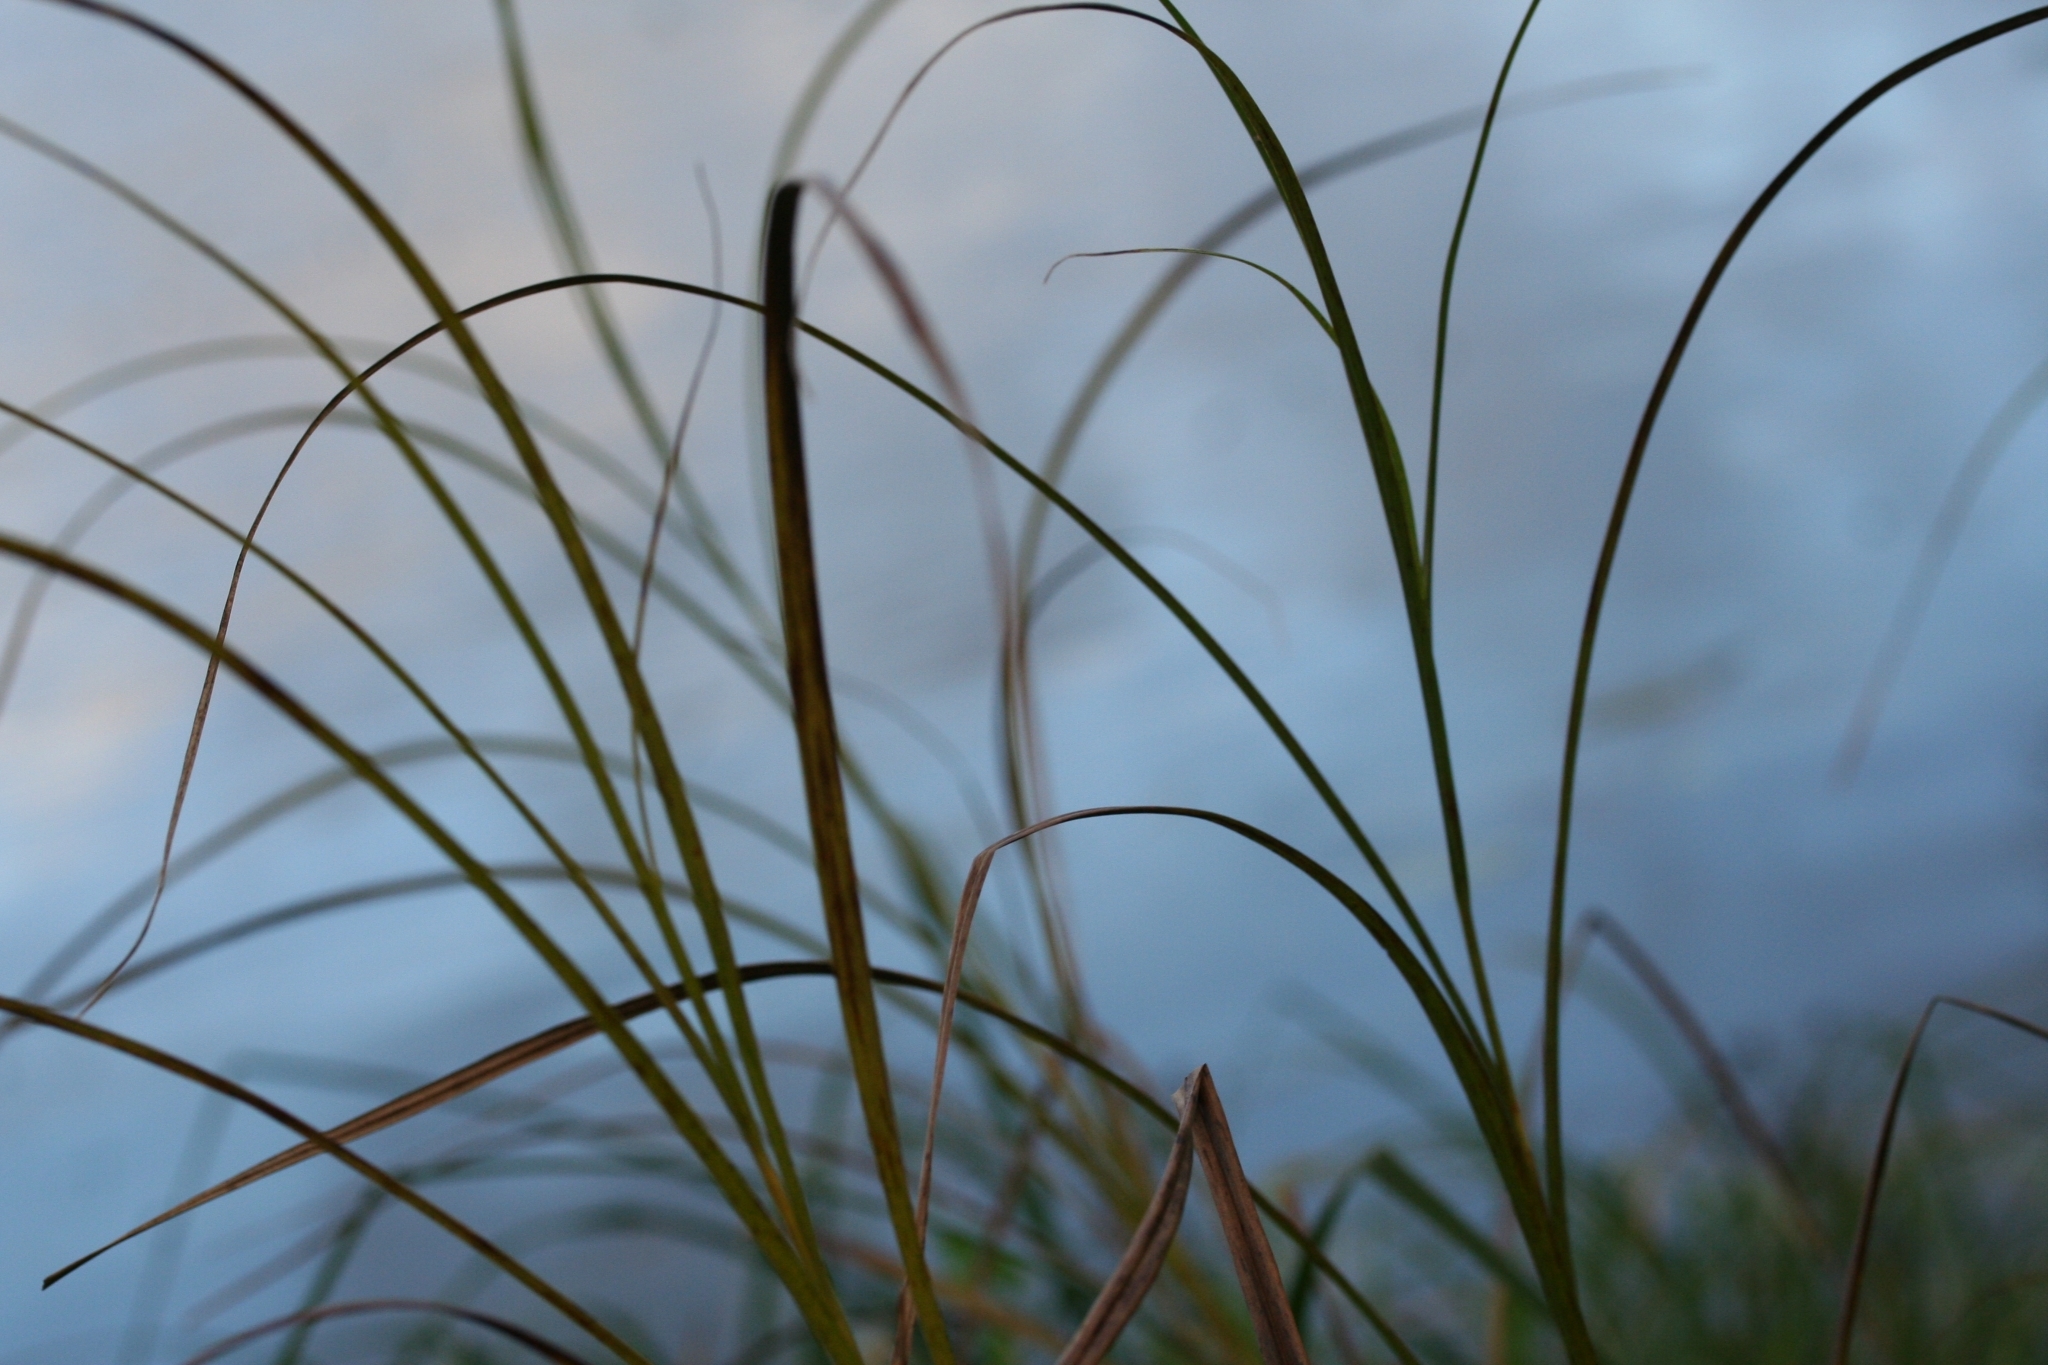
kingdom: Plantae
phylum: Tracheophyta
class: Liliopsida
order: Poales
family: Cyperaceae
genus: Bolboschoenus
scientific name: Bolboschoenus laticarpus
